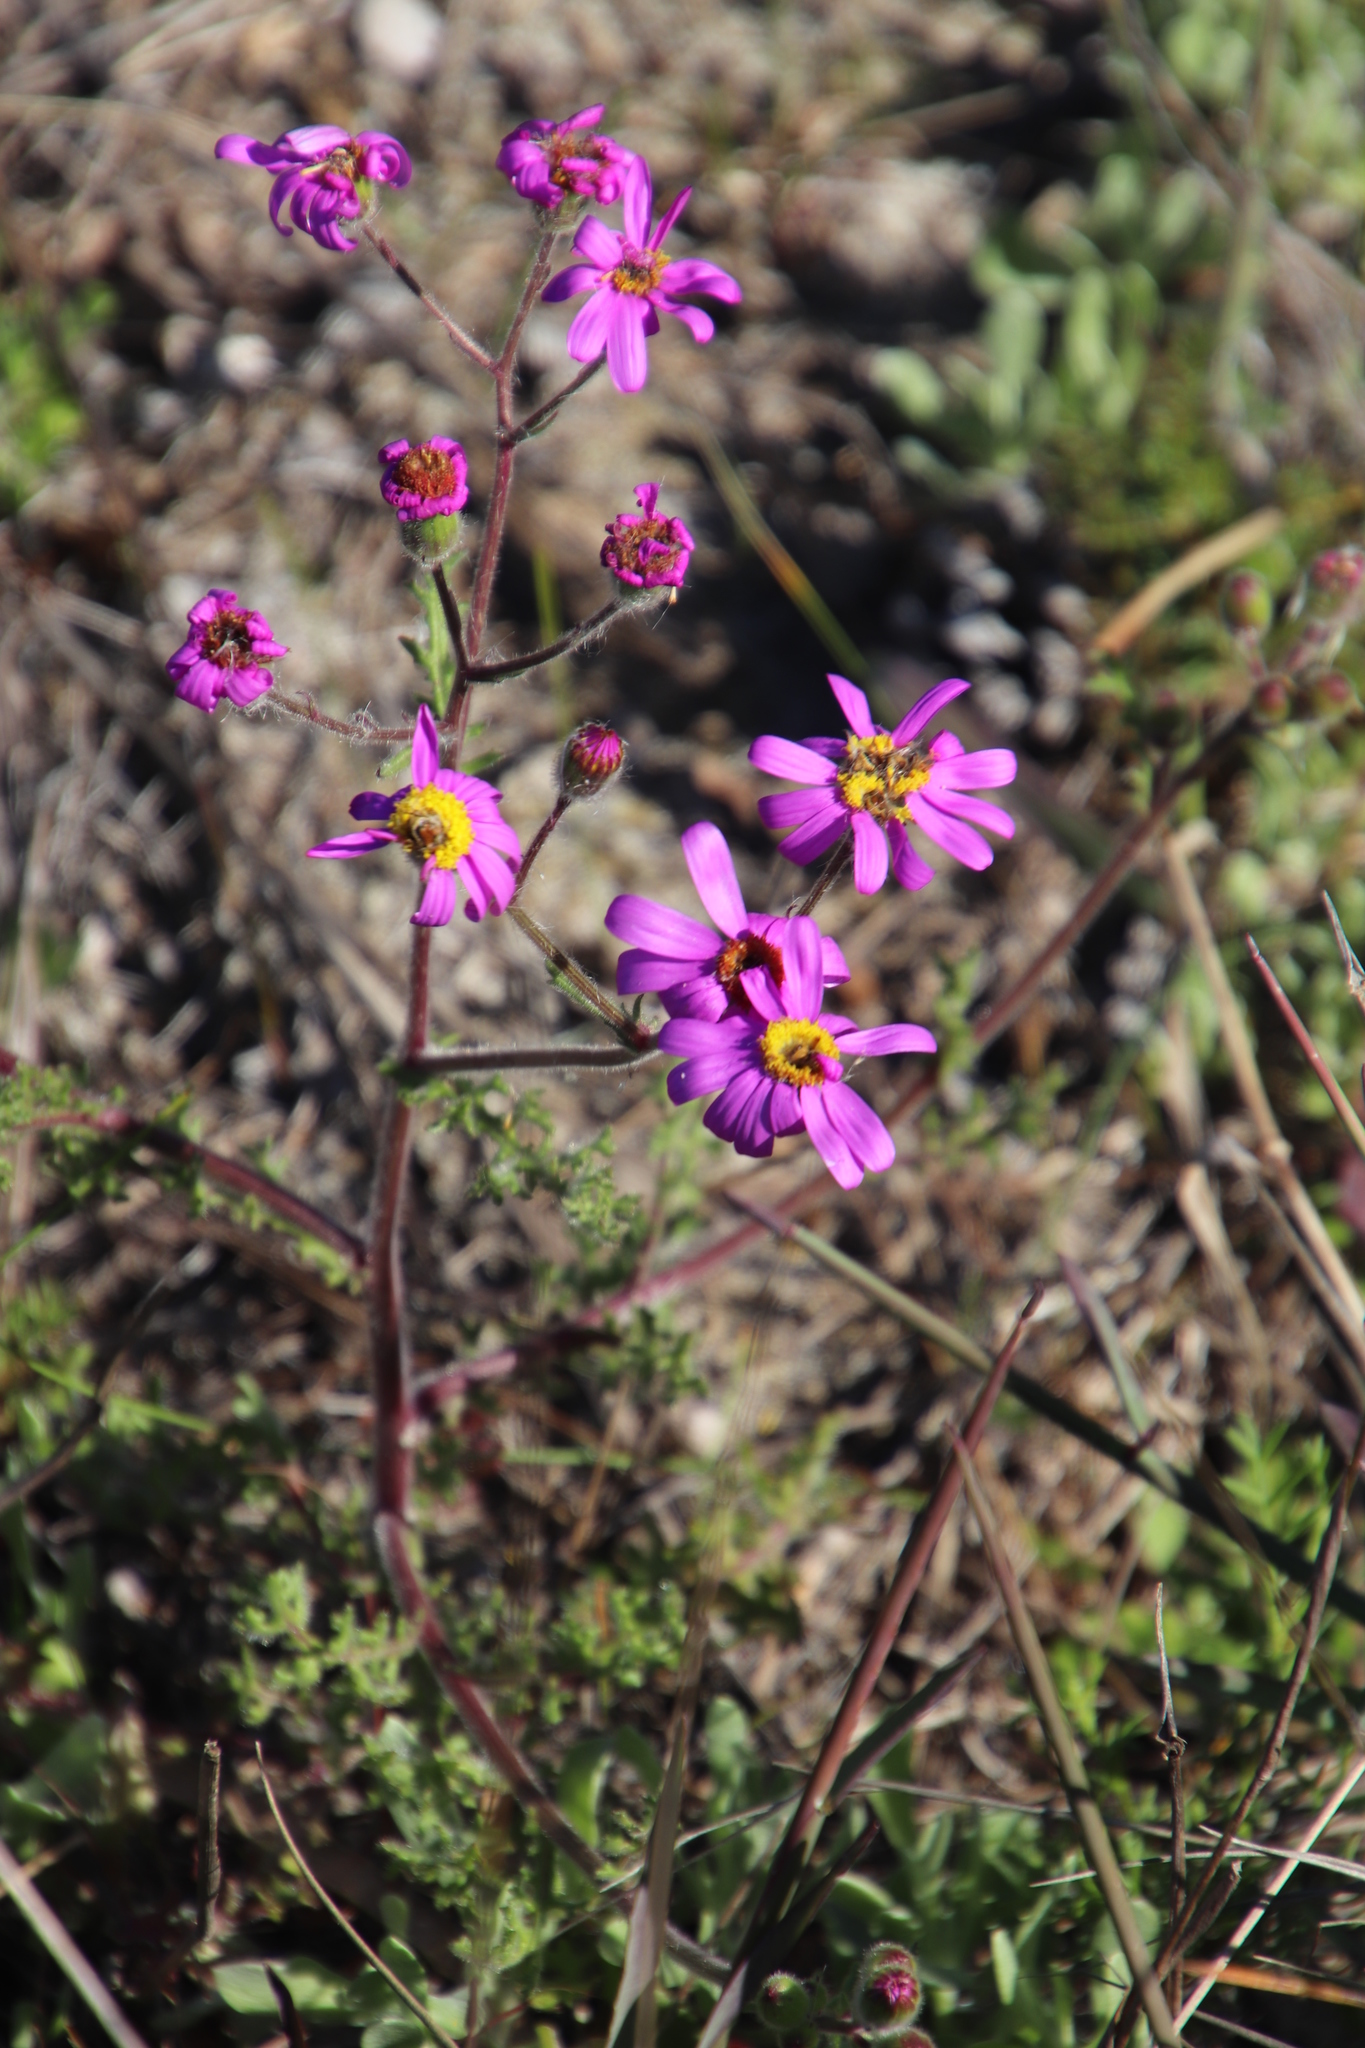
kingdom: Plantae
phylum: Tracheophyta
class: Magnoliopsida
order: Asterales
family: Asteraceae
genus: Senecio
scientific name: Senecio arenarius
